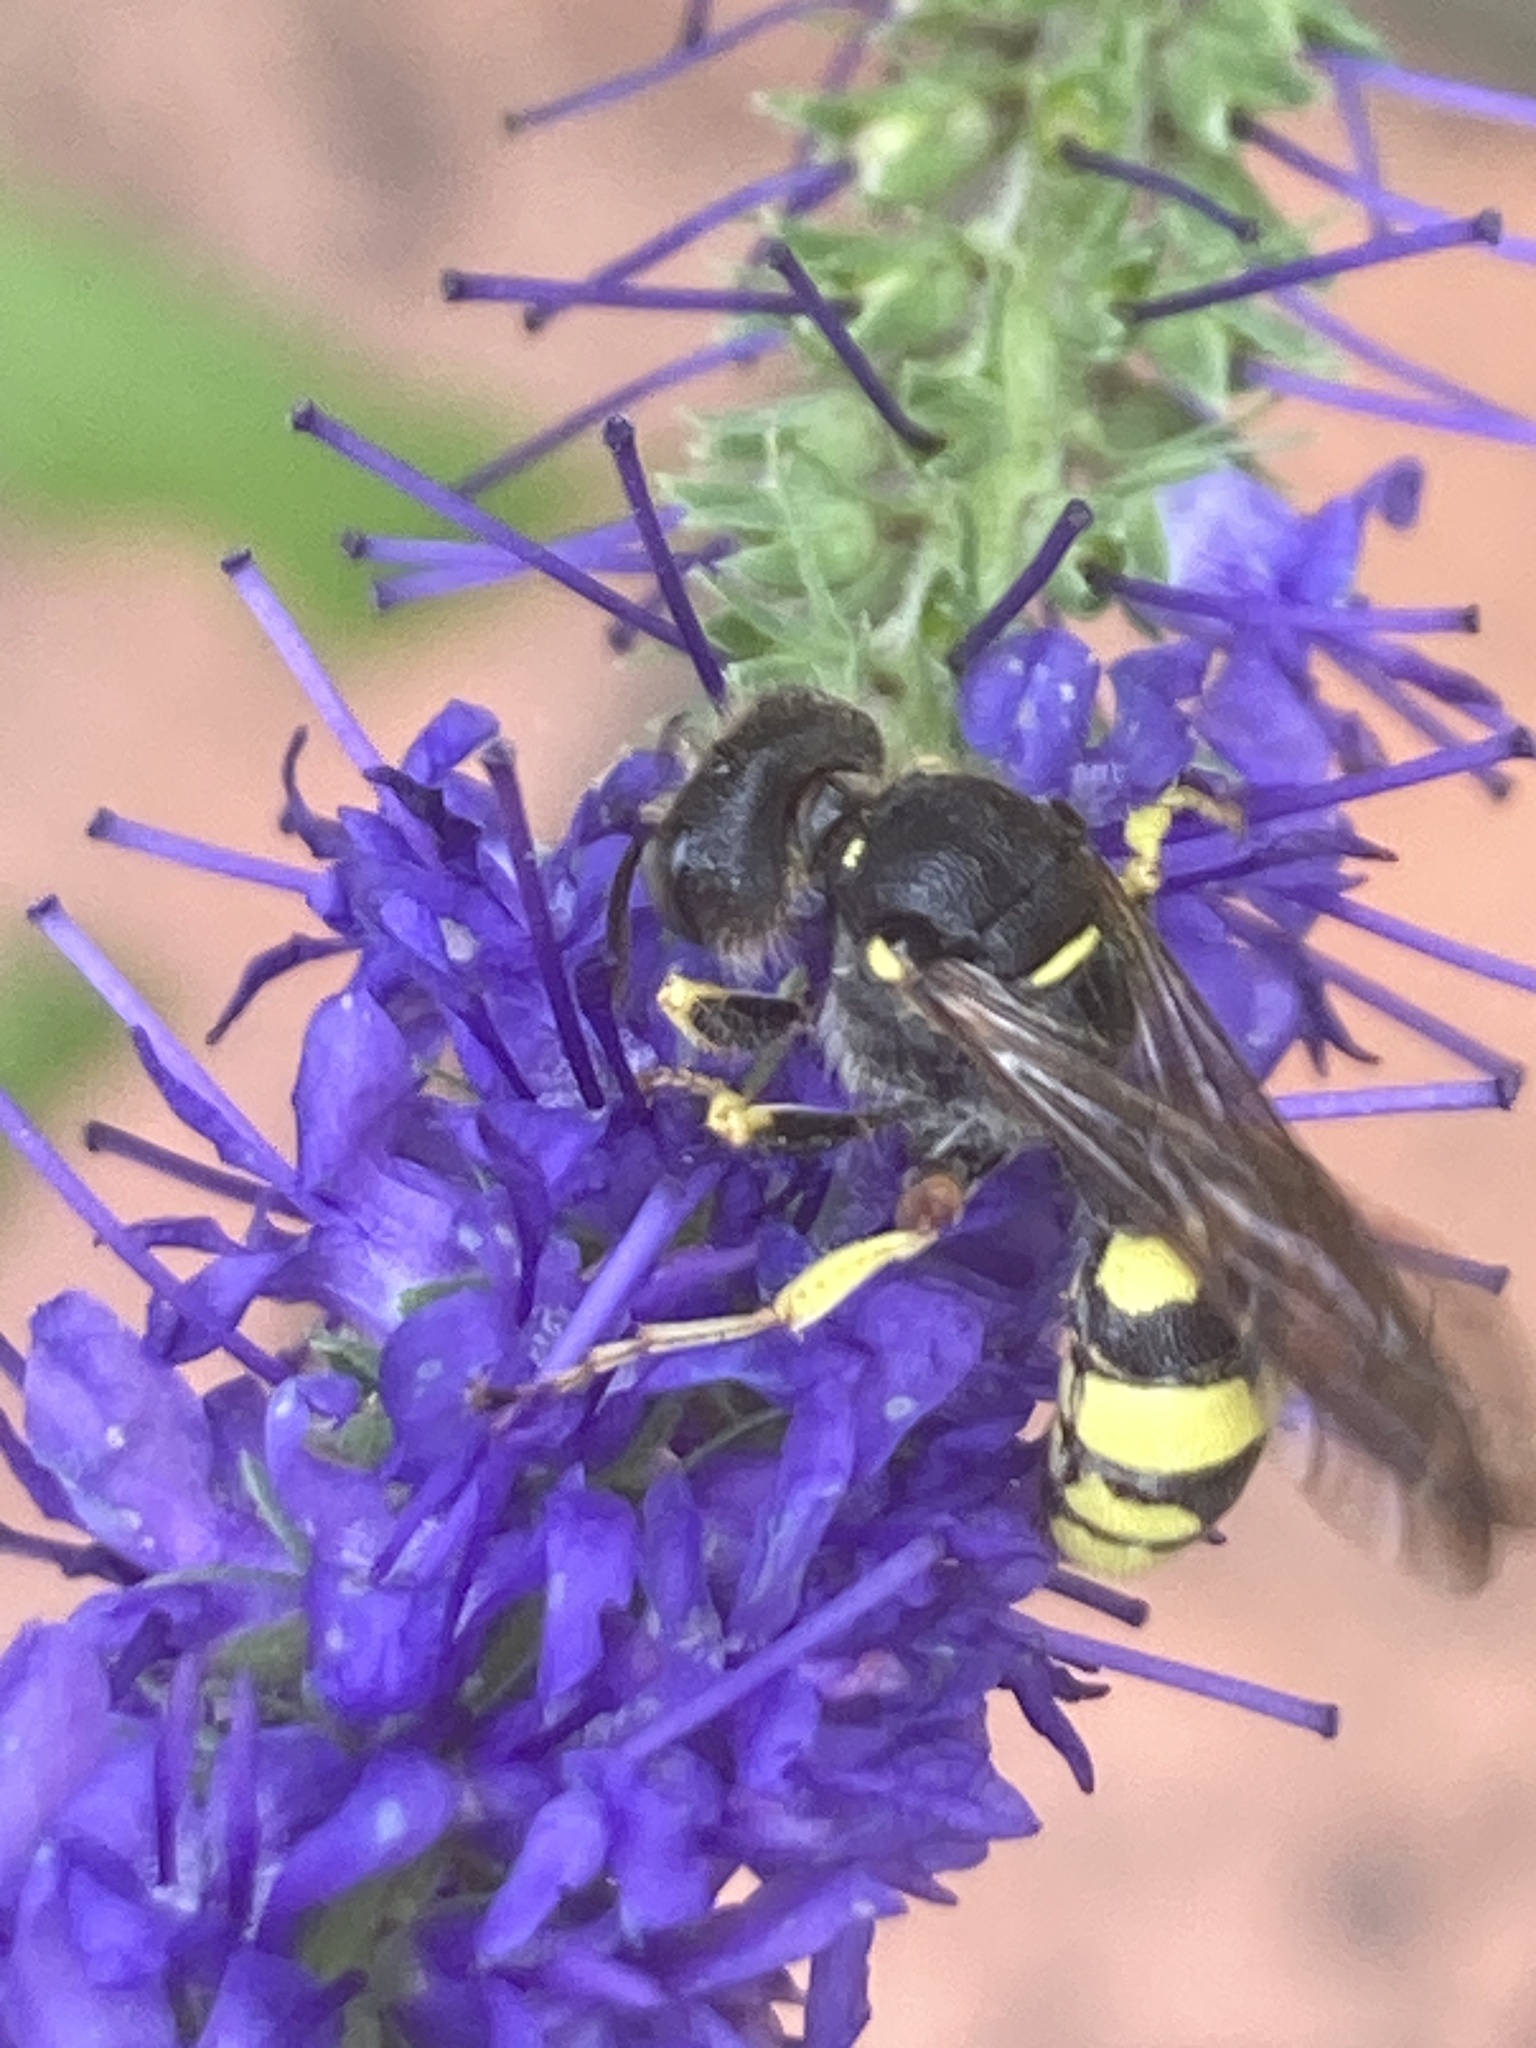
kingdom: Animalia
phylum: Arthropoda
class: Insecta
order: Hymenoptera
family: Crabronidae
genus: Cerceris
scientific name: Cerceris rybyensis
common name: Ornate tailed digger wasp
